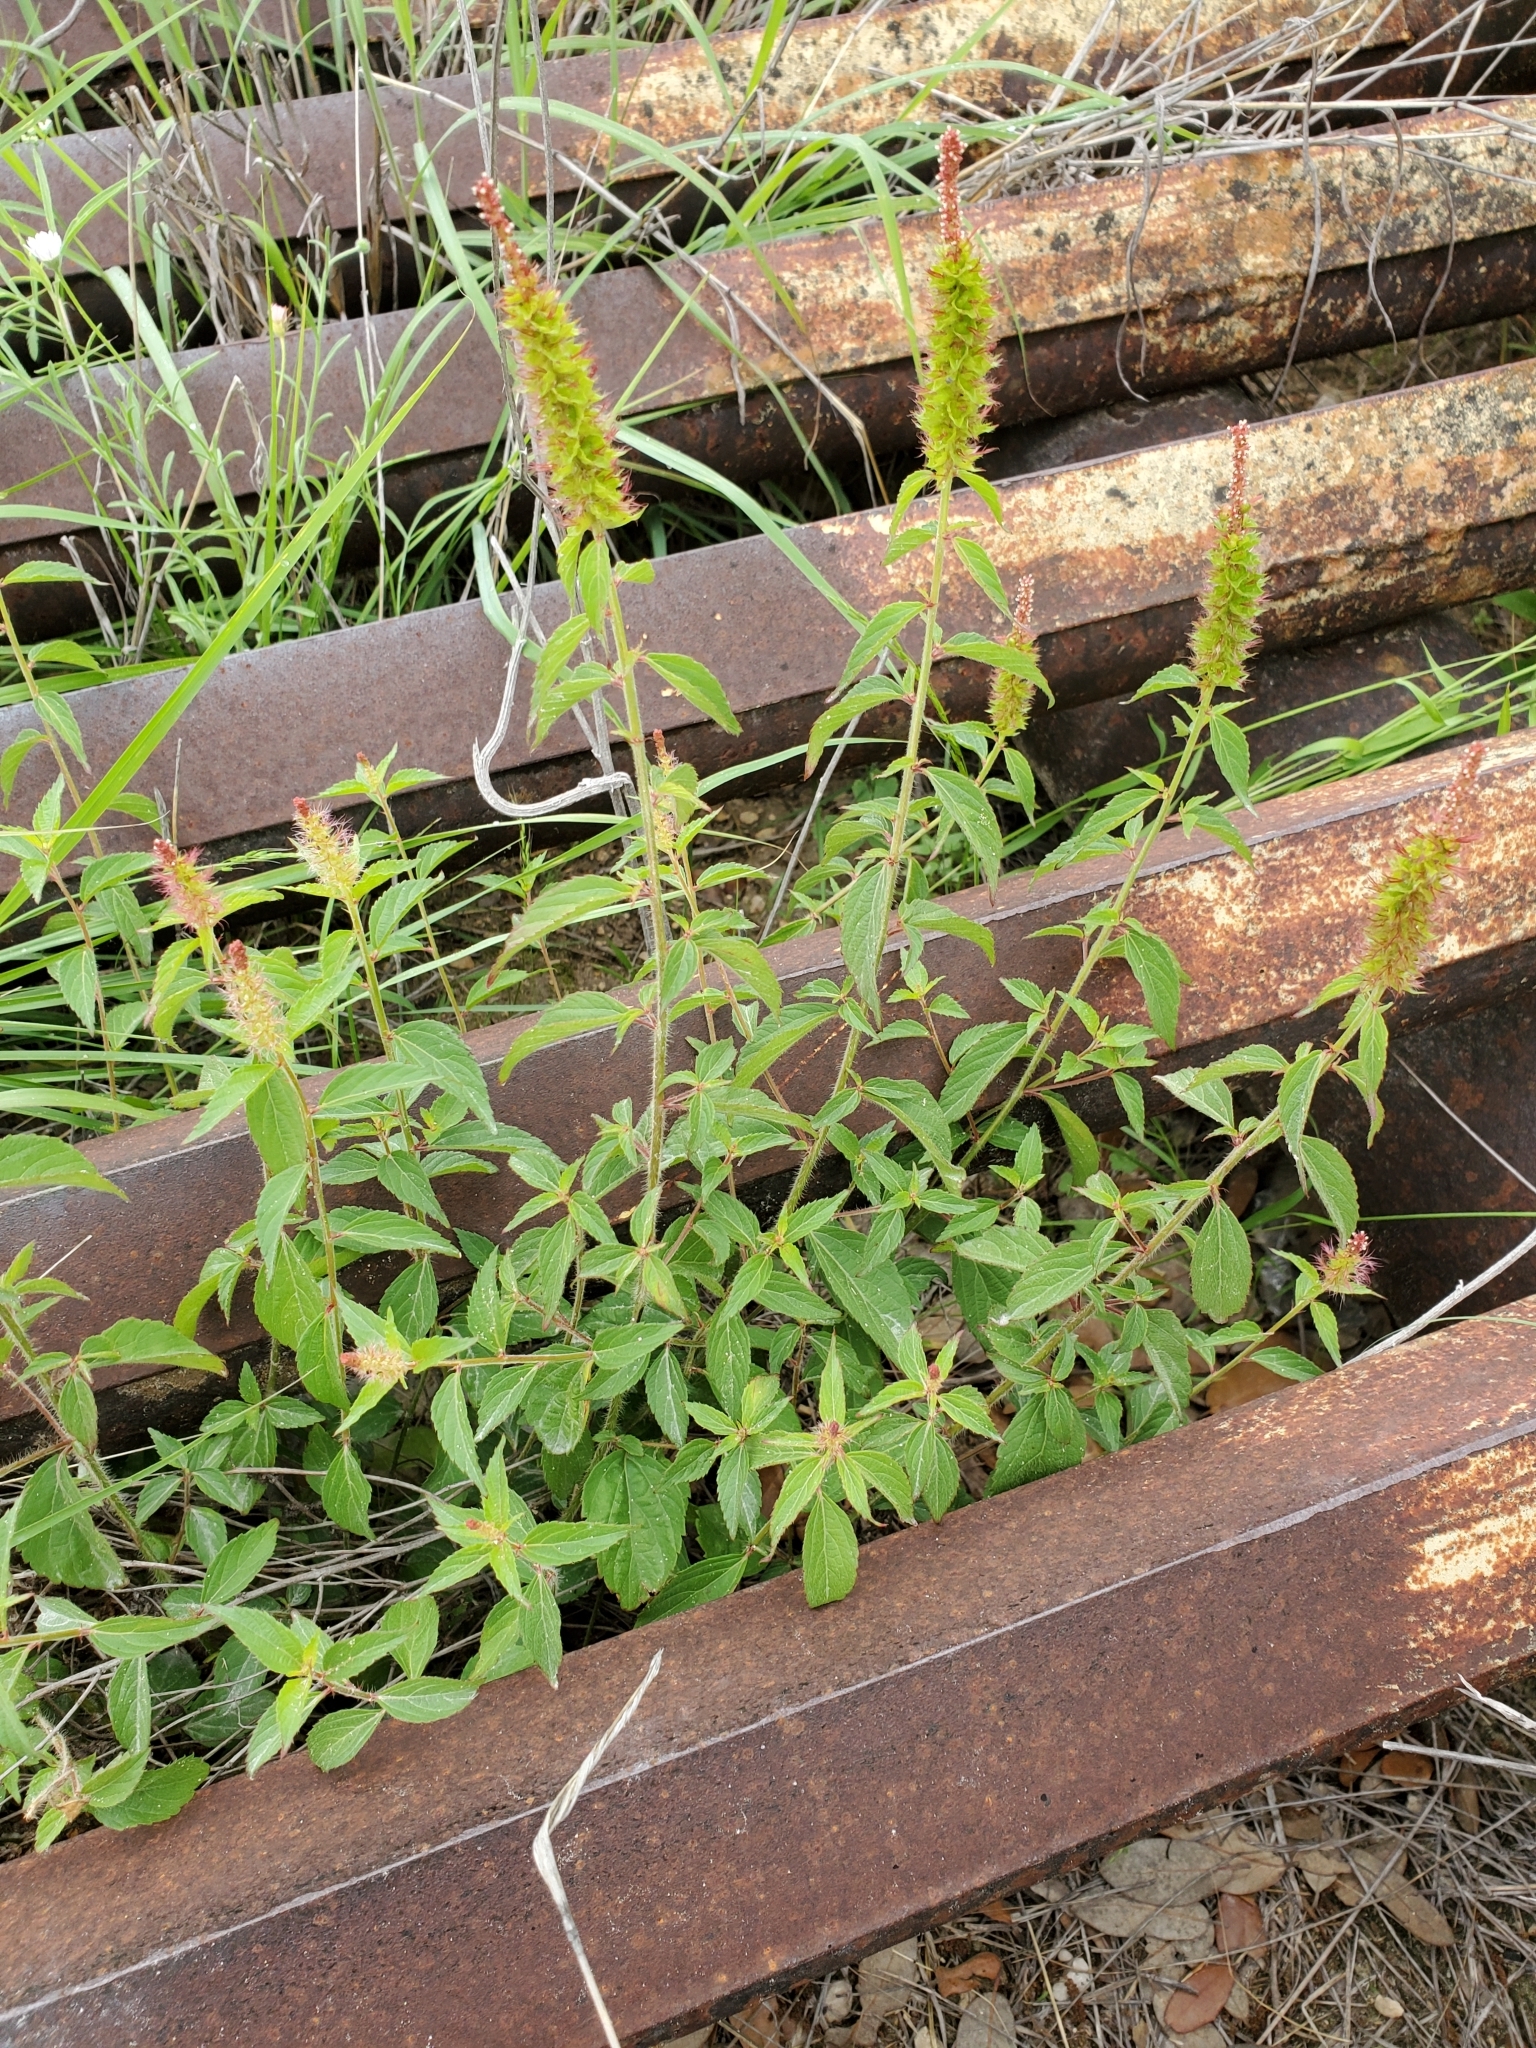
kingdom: Plantae
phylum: Tracheophyta
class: Magnoliopsida
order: Malpighiales
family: Euphorbiaceae
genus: Acalypha
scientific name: Acalypha phleoides
